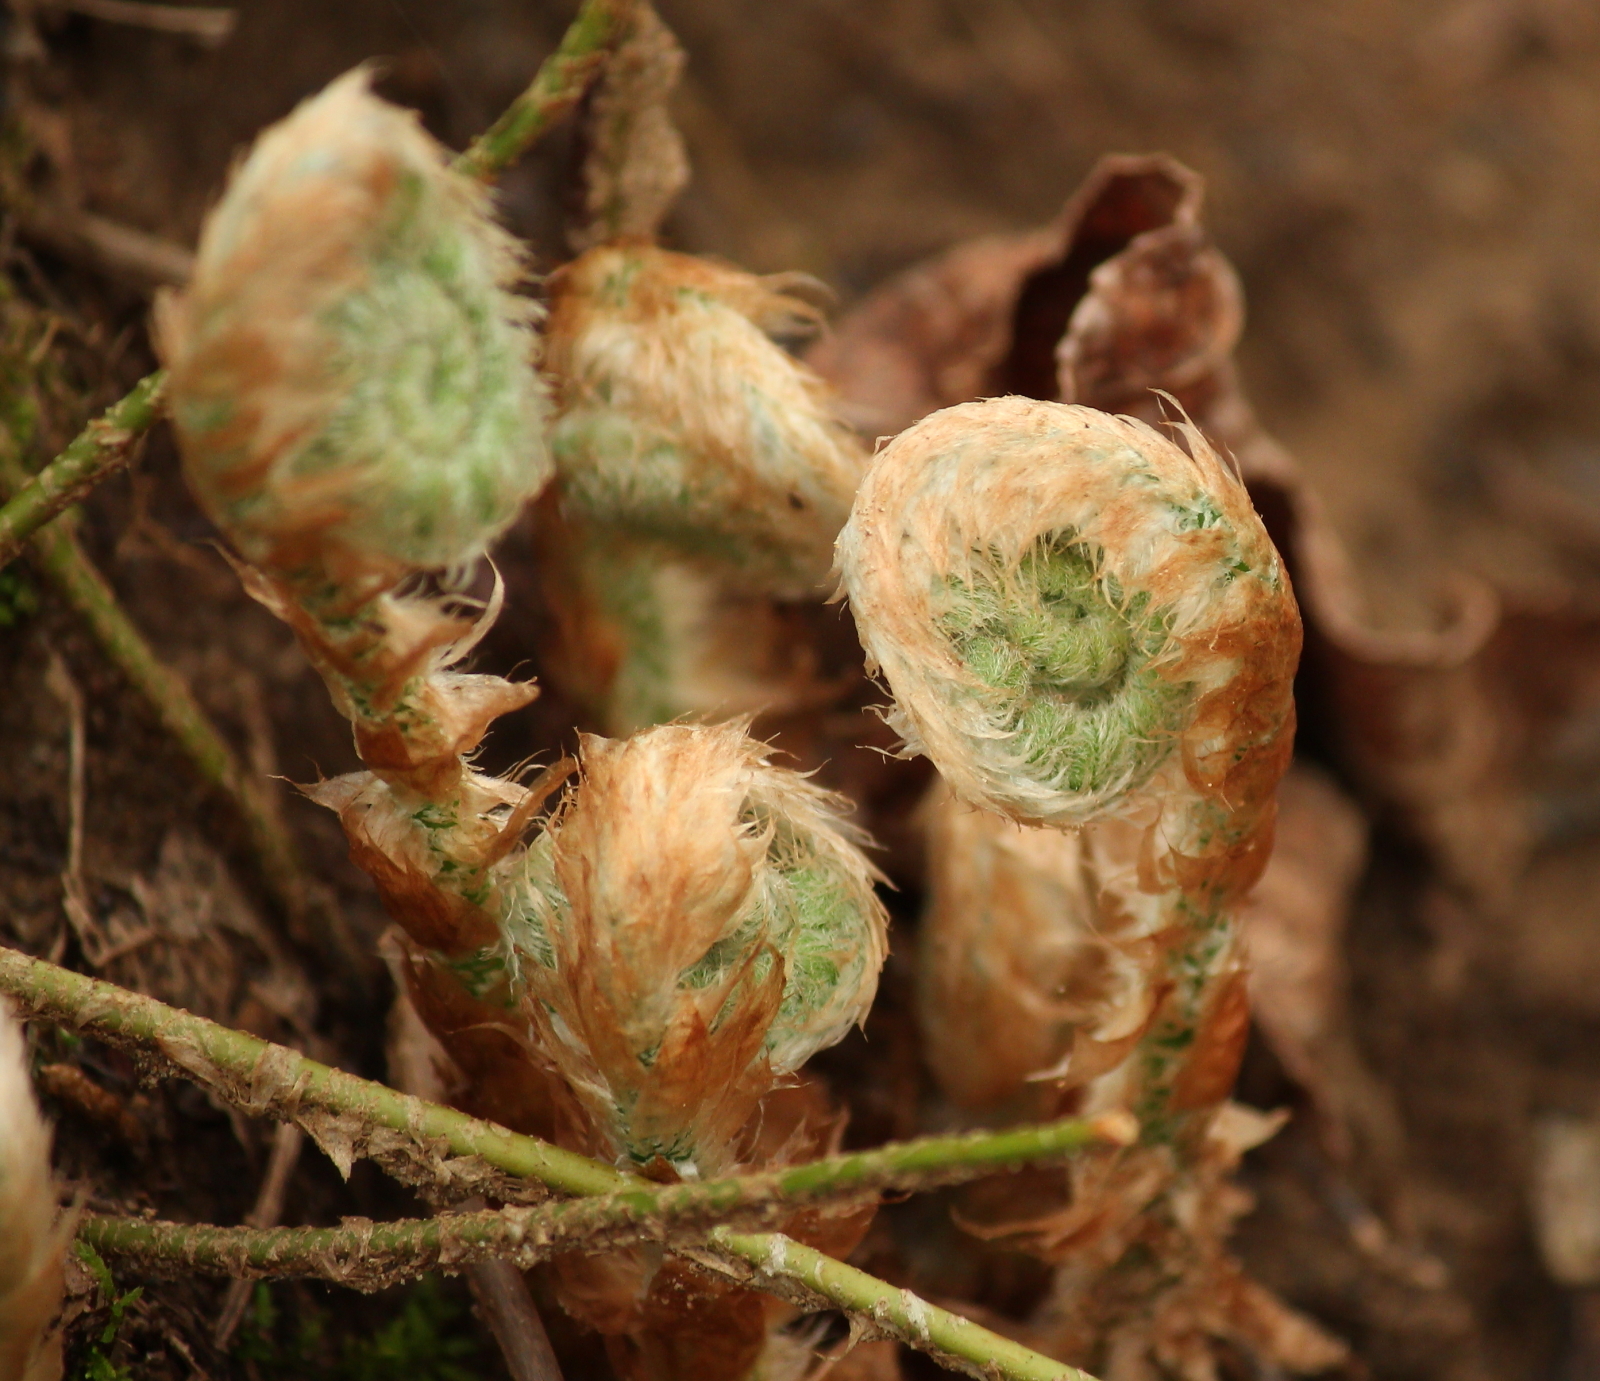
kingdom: Plantae
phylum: Tracheophyta
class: Polypodiopsida
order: Polypodiales
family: Dryopteridaceae
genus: Polystichum
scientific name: Polystichum acrostichoides
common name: Christmas fern
